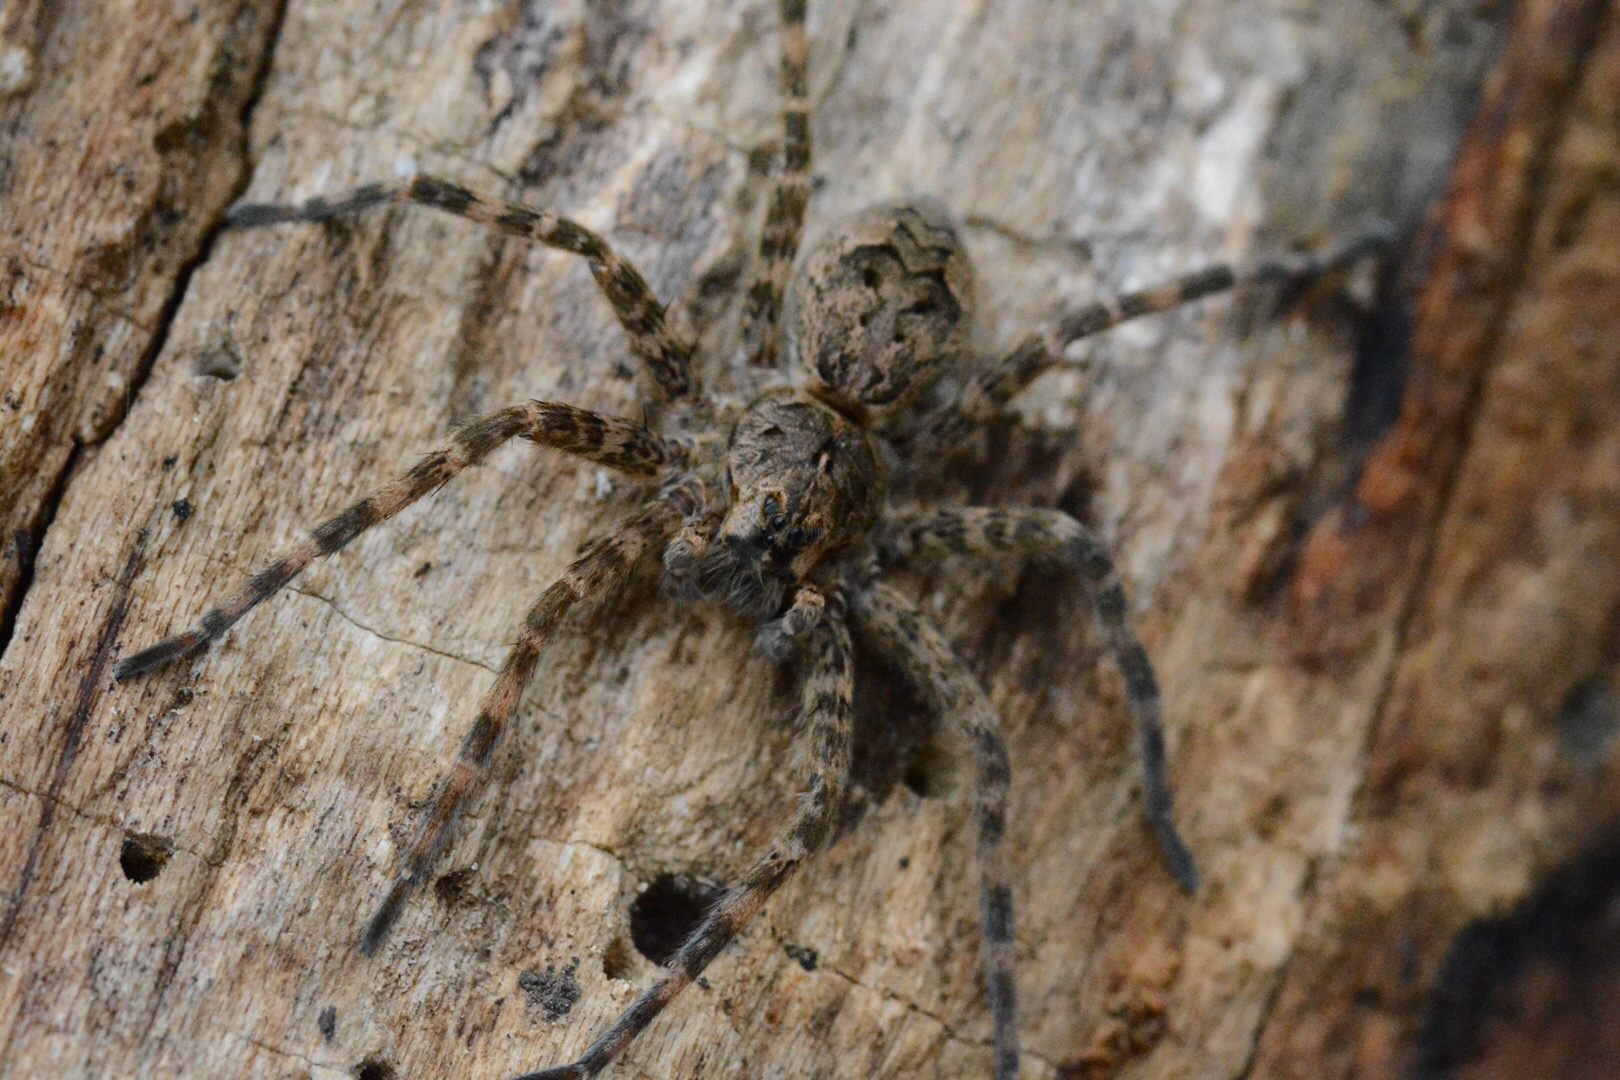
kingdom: Animalia
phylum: Arthropoda
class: Arachnida
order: Araneae
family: Pisauridae
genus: Dolomedes
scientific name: Dolomedes tenebrosus
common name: Dark fishing spider
